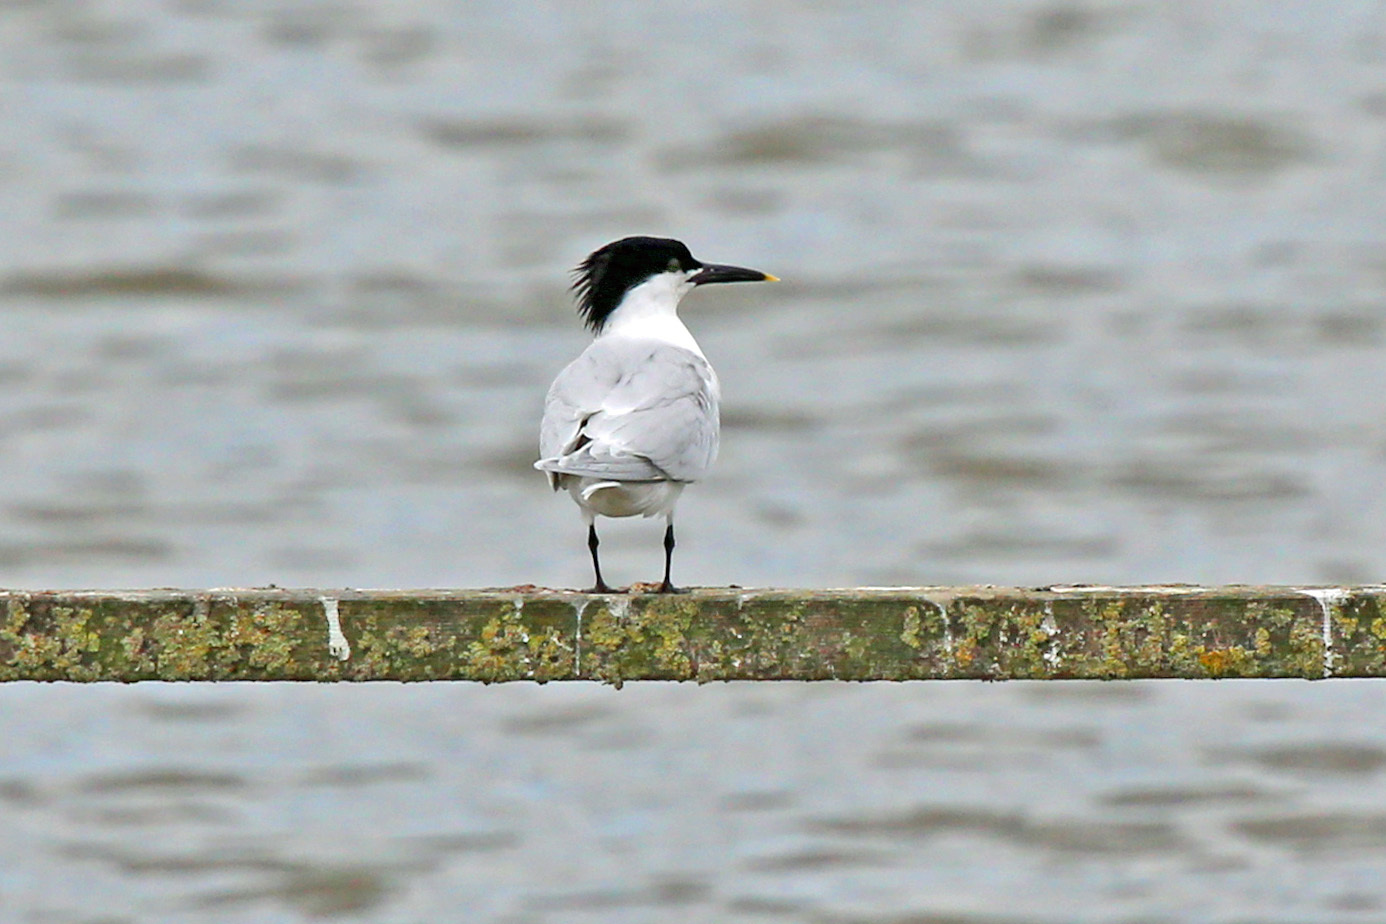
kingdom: Animalia
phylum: Chordata
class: Aves
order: Charadriiformes
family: Laridae
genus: Thalasseus
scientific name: Thalasseus sandvicensis
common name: Sandwich tern
